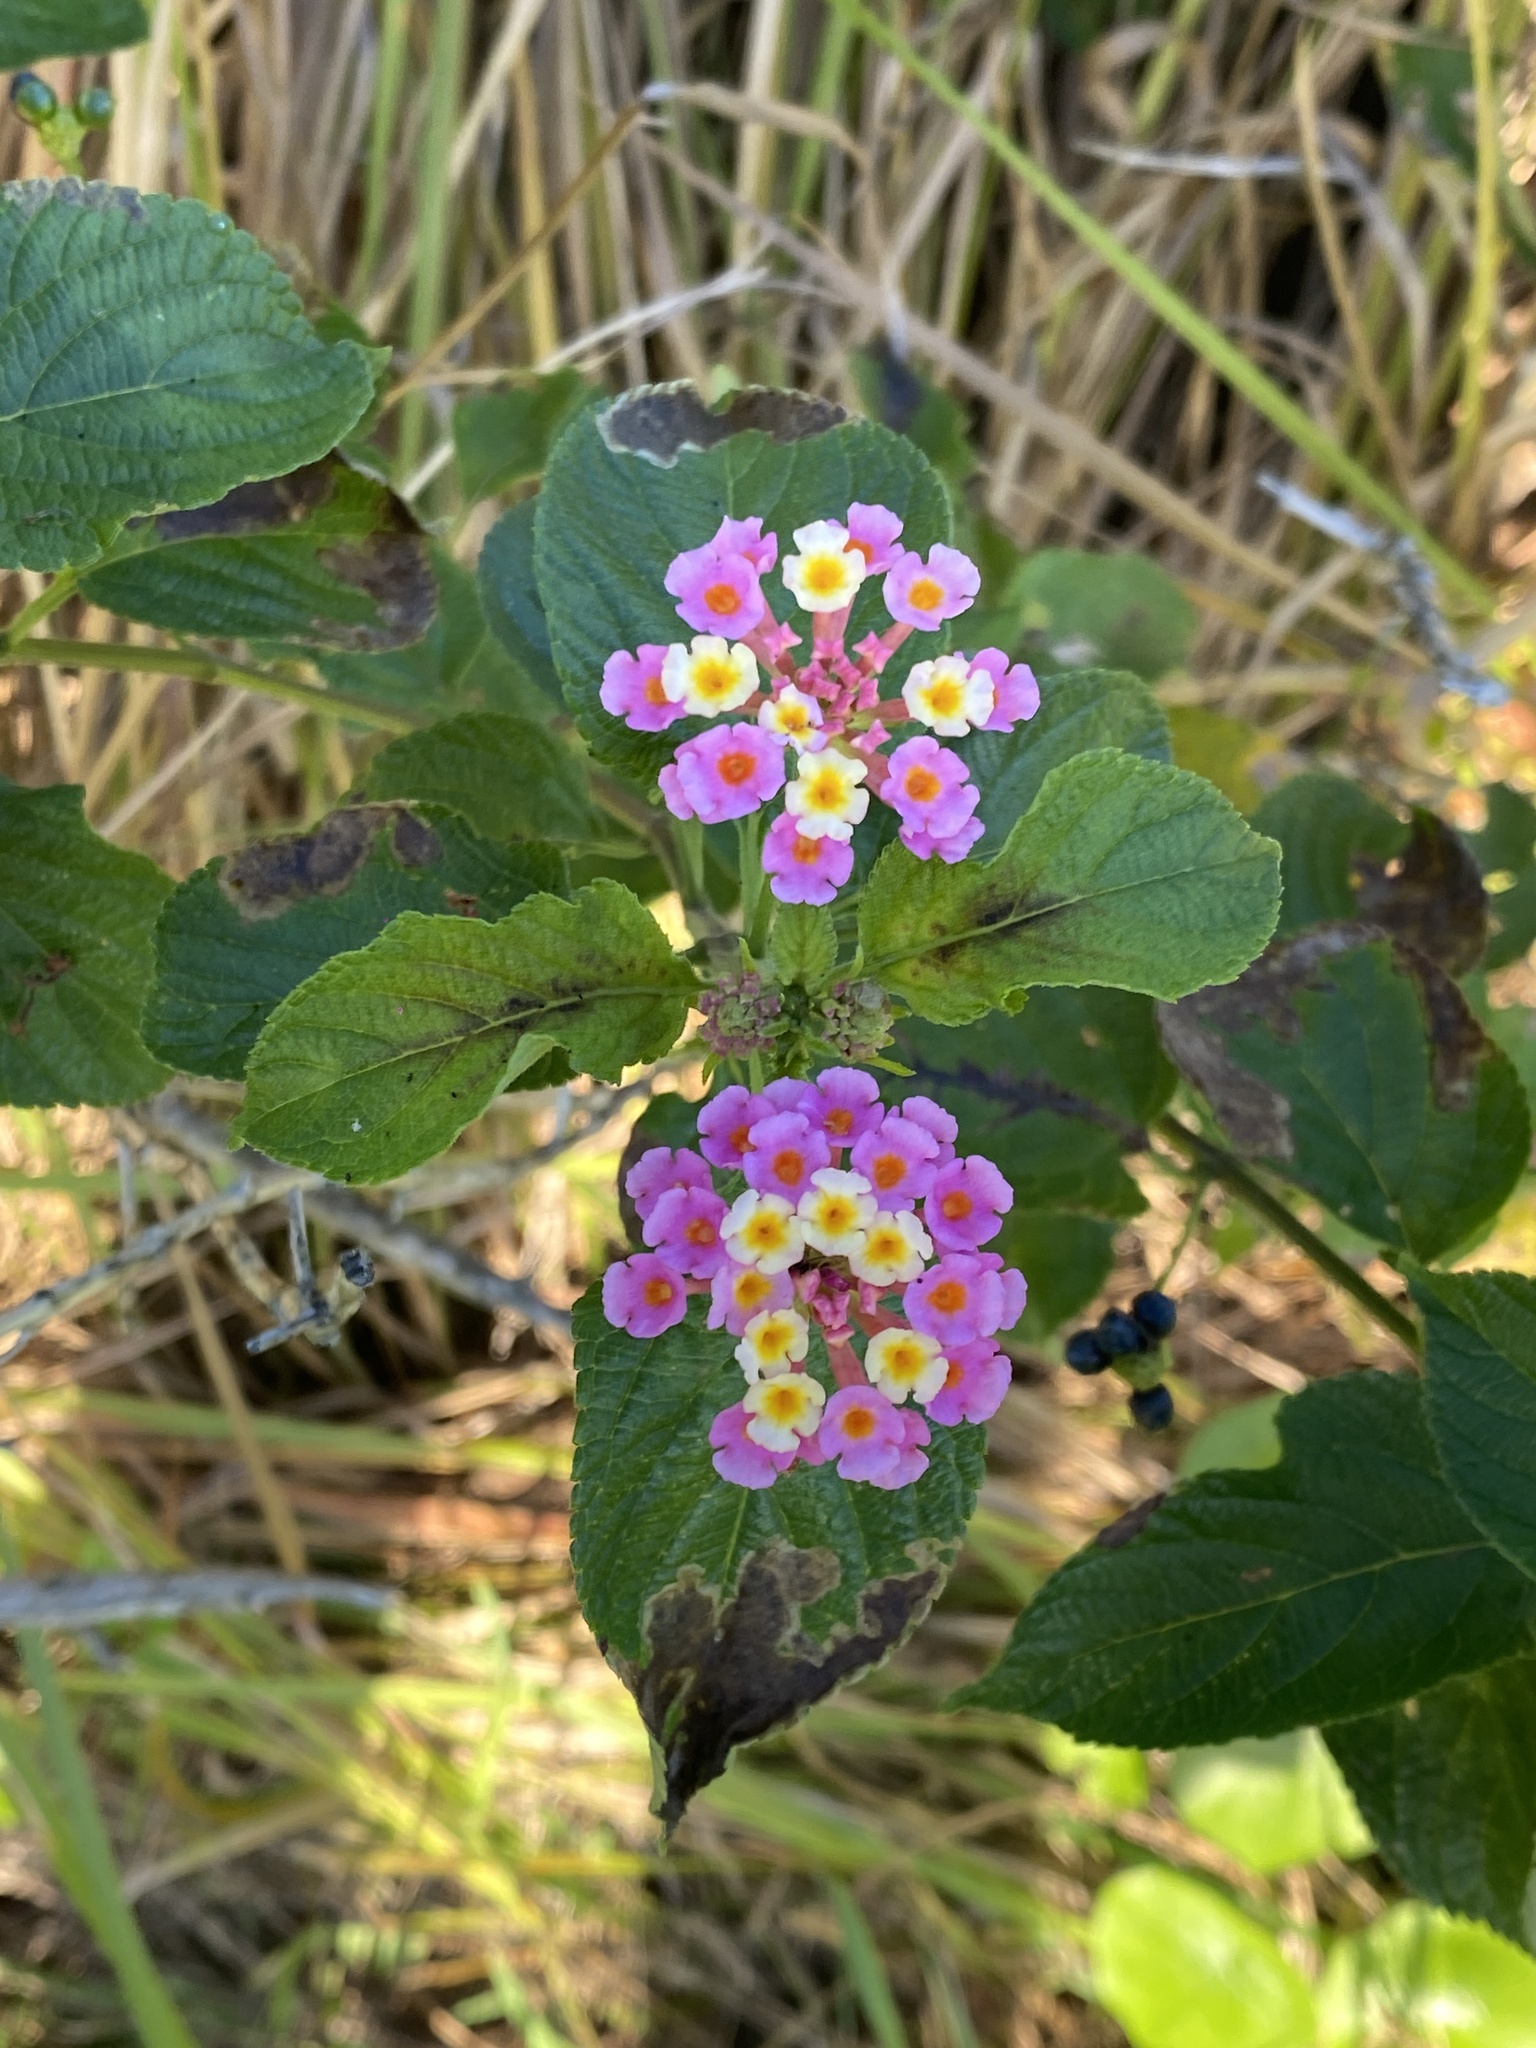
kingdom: Plantae
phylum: Tracheophyta
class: Magnoliopsida
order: Lamiales
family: Verbenaceae
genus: Lantana
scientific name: Lantana camara
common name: Lantana
